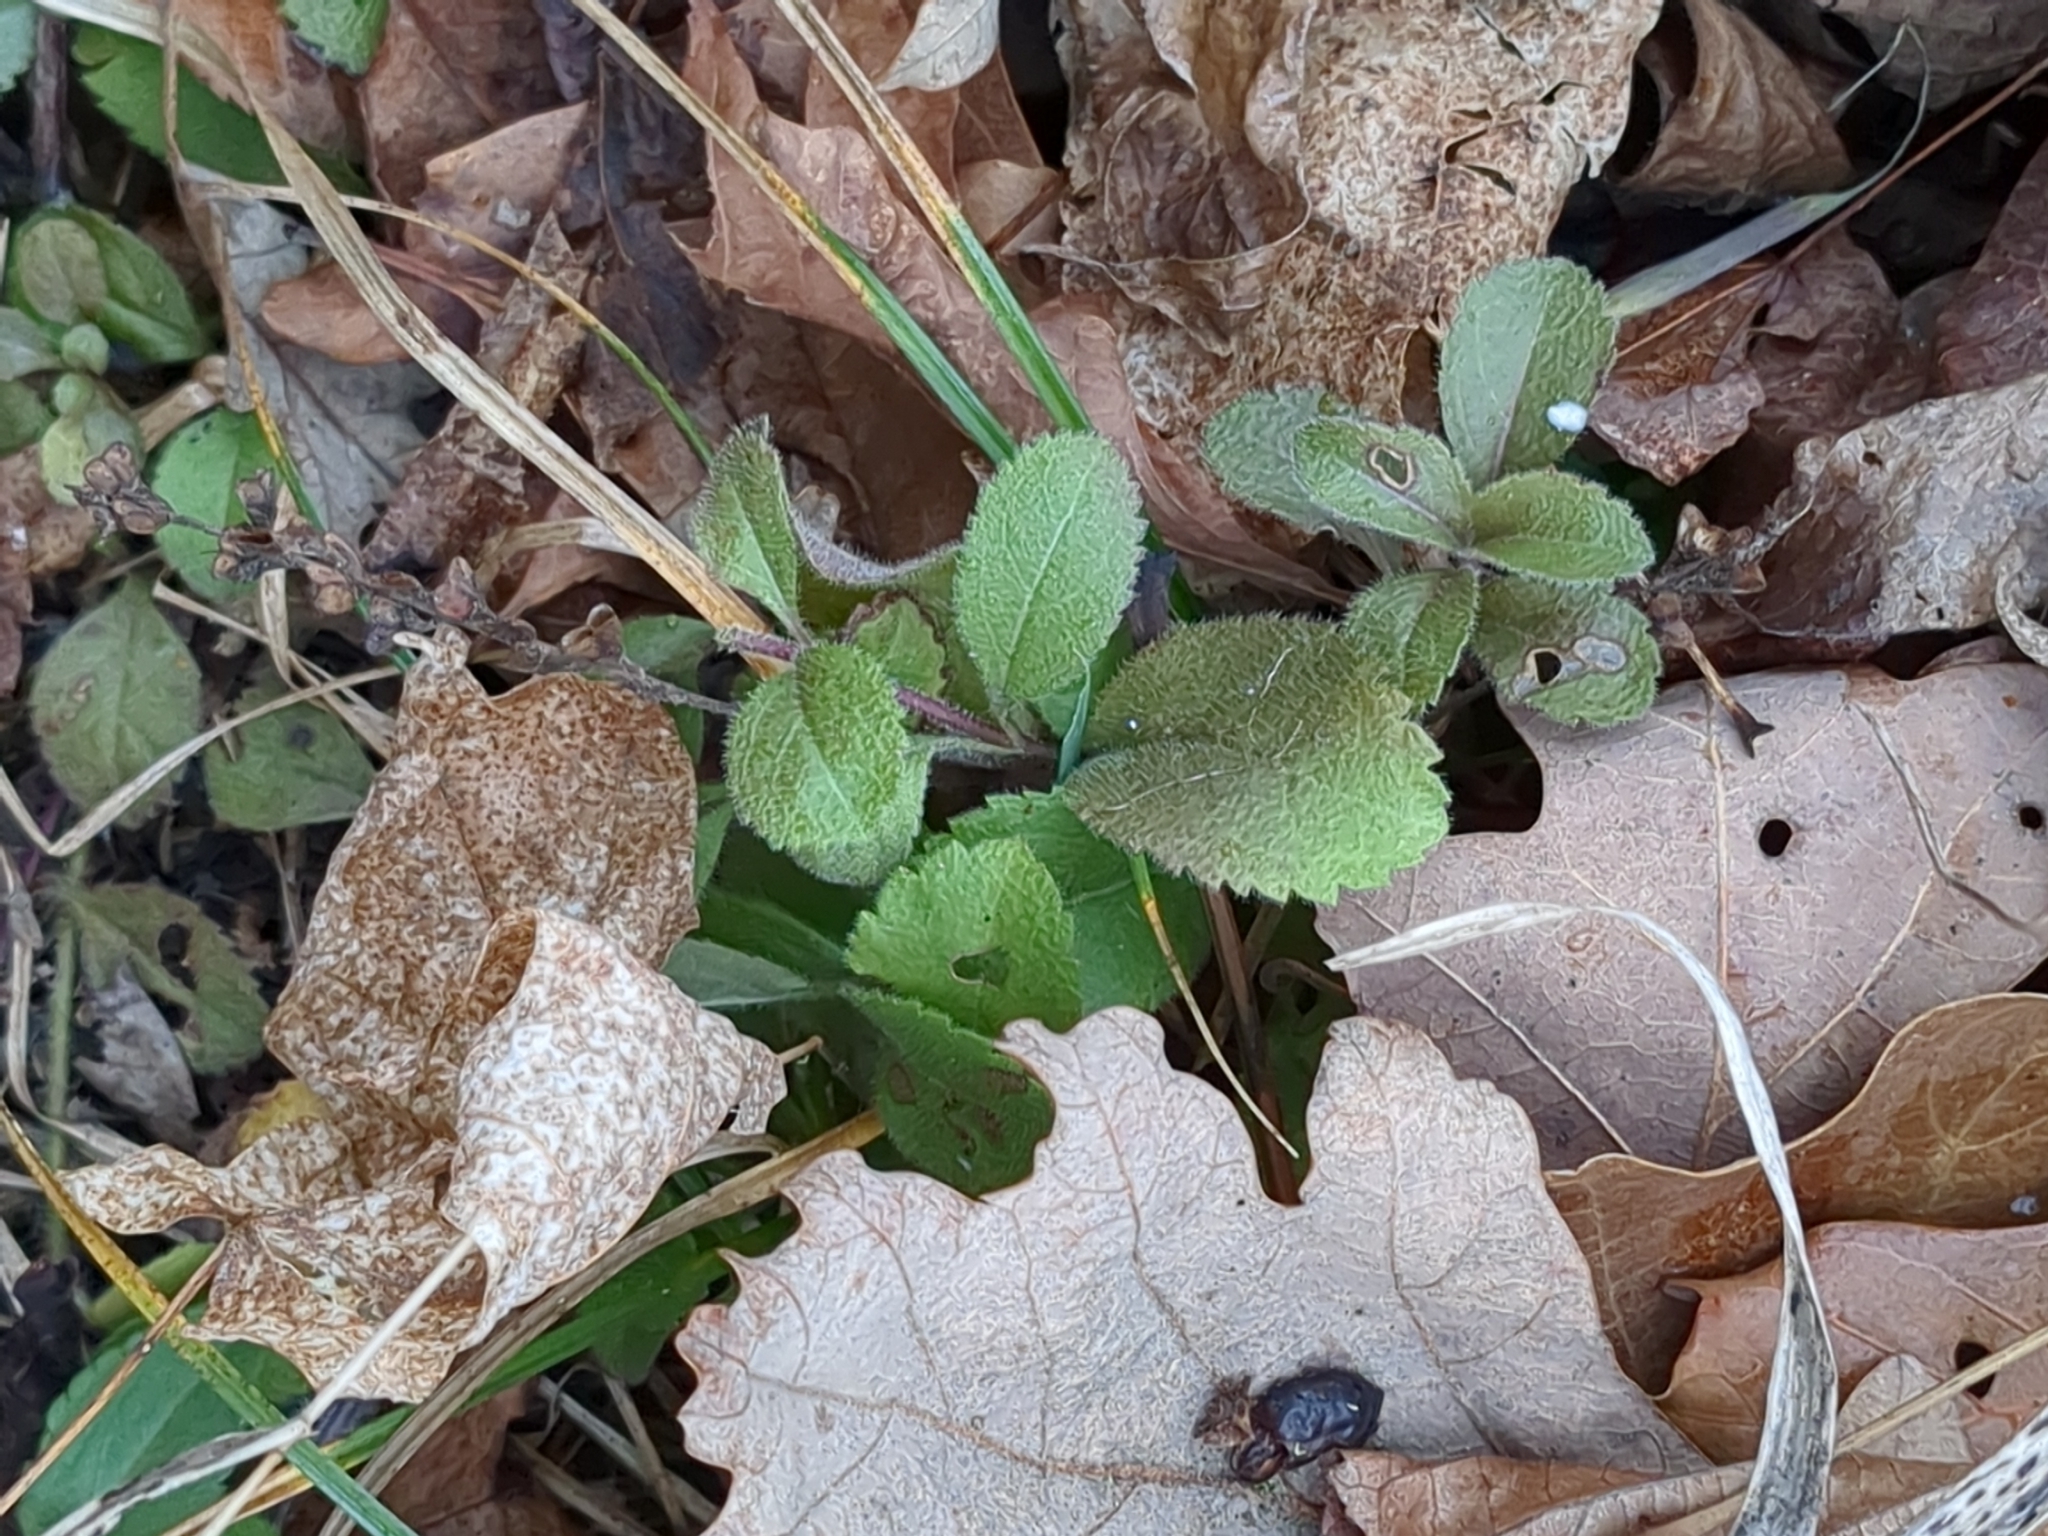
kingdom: Plantae
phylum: Tracheophyta
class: Magnoliopsida
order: Lamiales
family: Plantaginaceae
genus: Veronica
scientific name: Veronica officinalis
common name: Common speedwell
